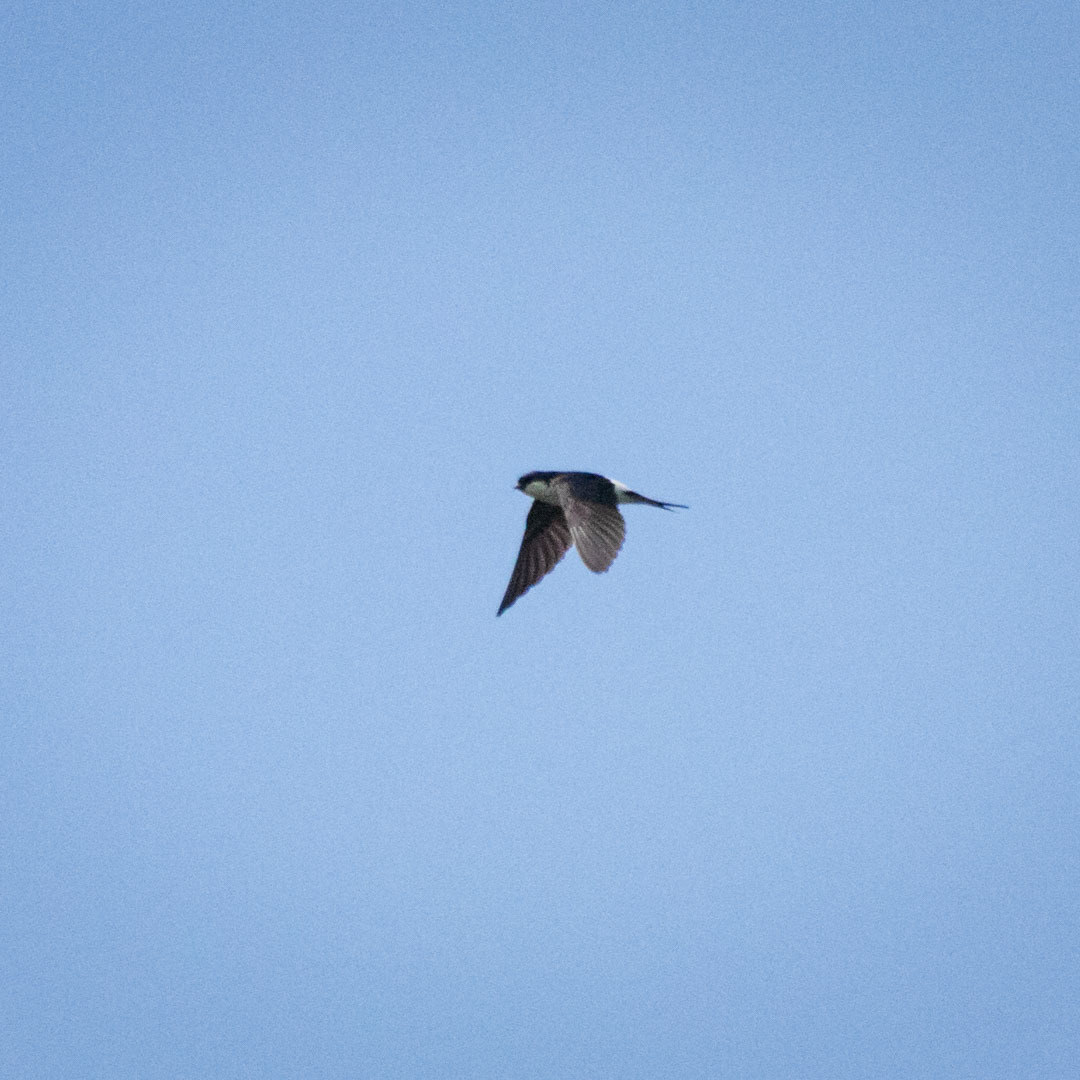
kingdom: Animalia
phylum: Chordata
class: Aves
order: Passeriformes
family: Hirundinidae
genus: Delichon
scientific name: Delichon urbicum
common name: Common house martin
